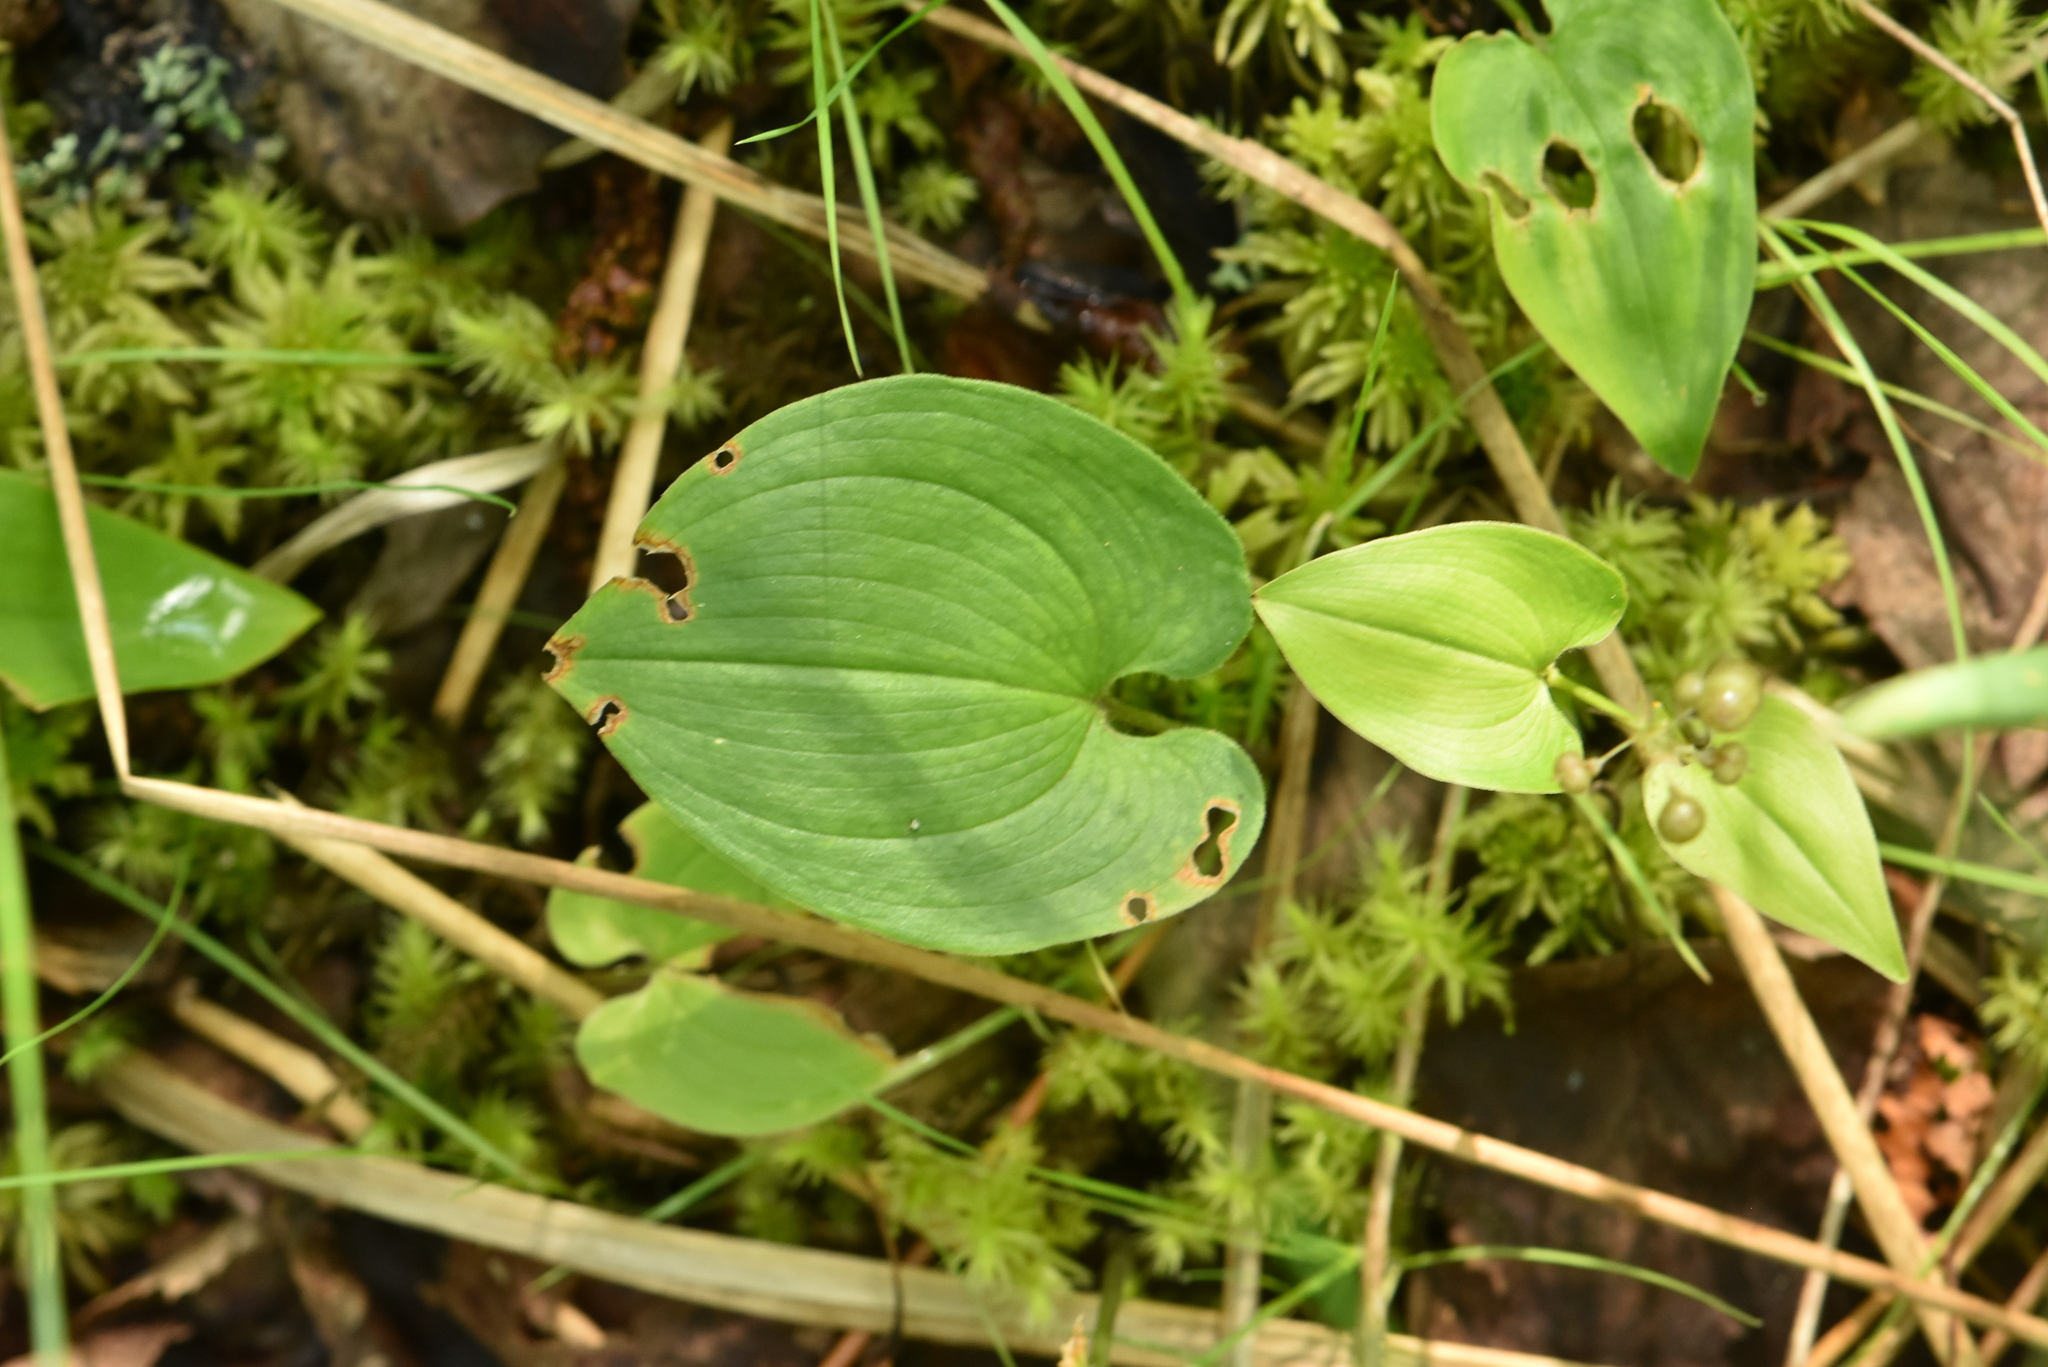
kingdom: Plantae
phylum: Tracheophyta
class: Liliopsida
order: Asparagales
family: Asparagaceae
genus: Maianthemum
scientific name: Maianthemum bifolium
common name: May lily
